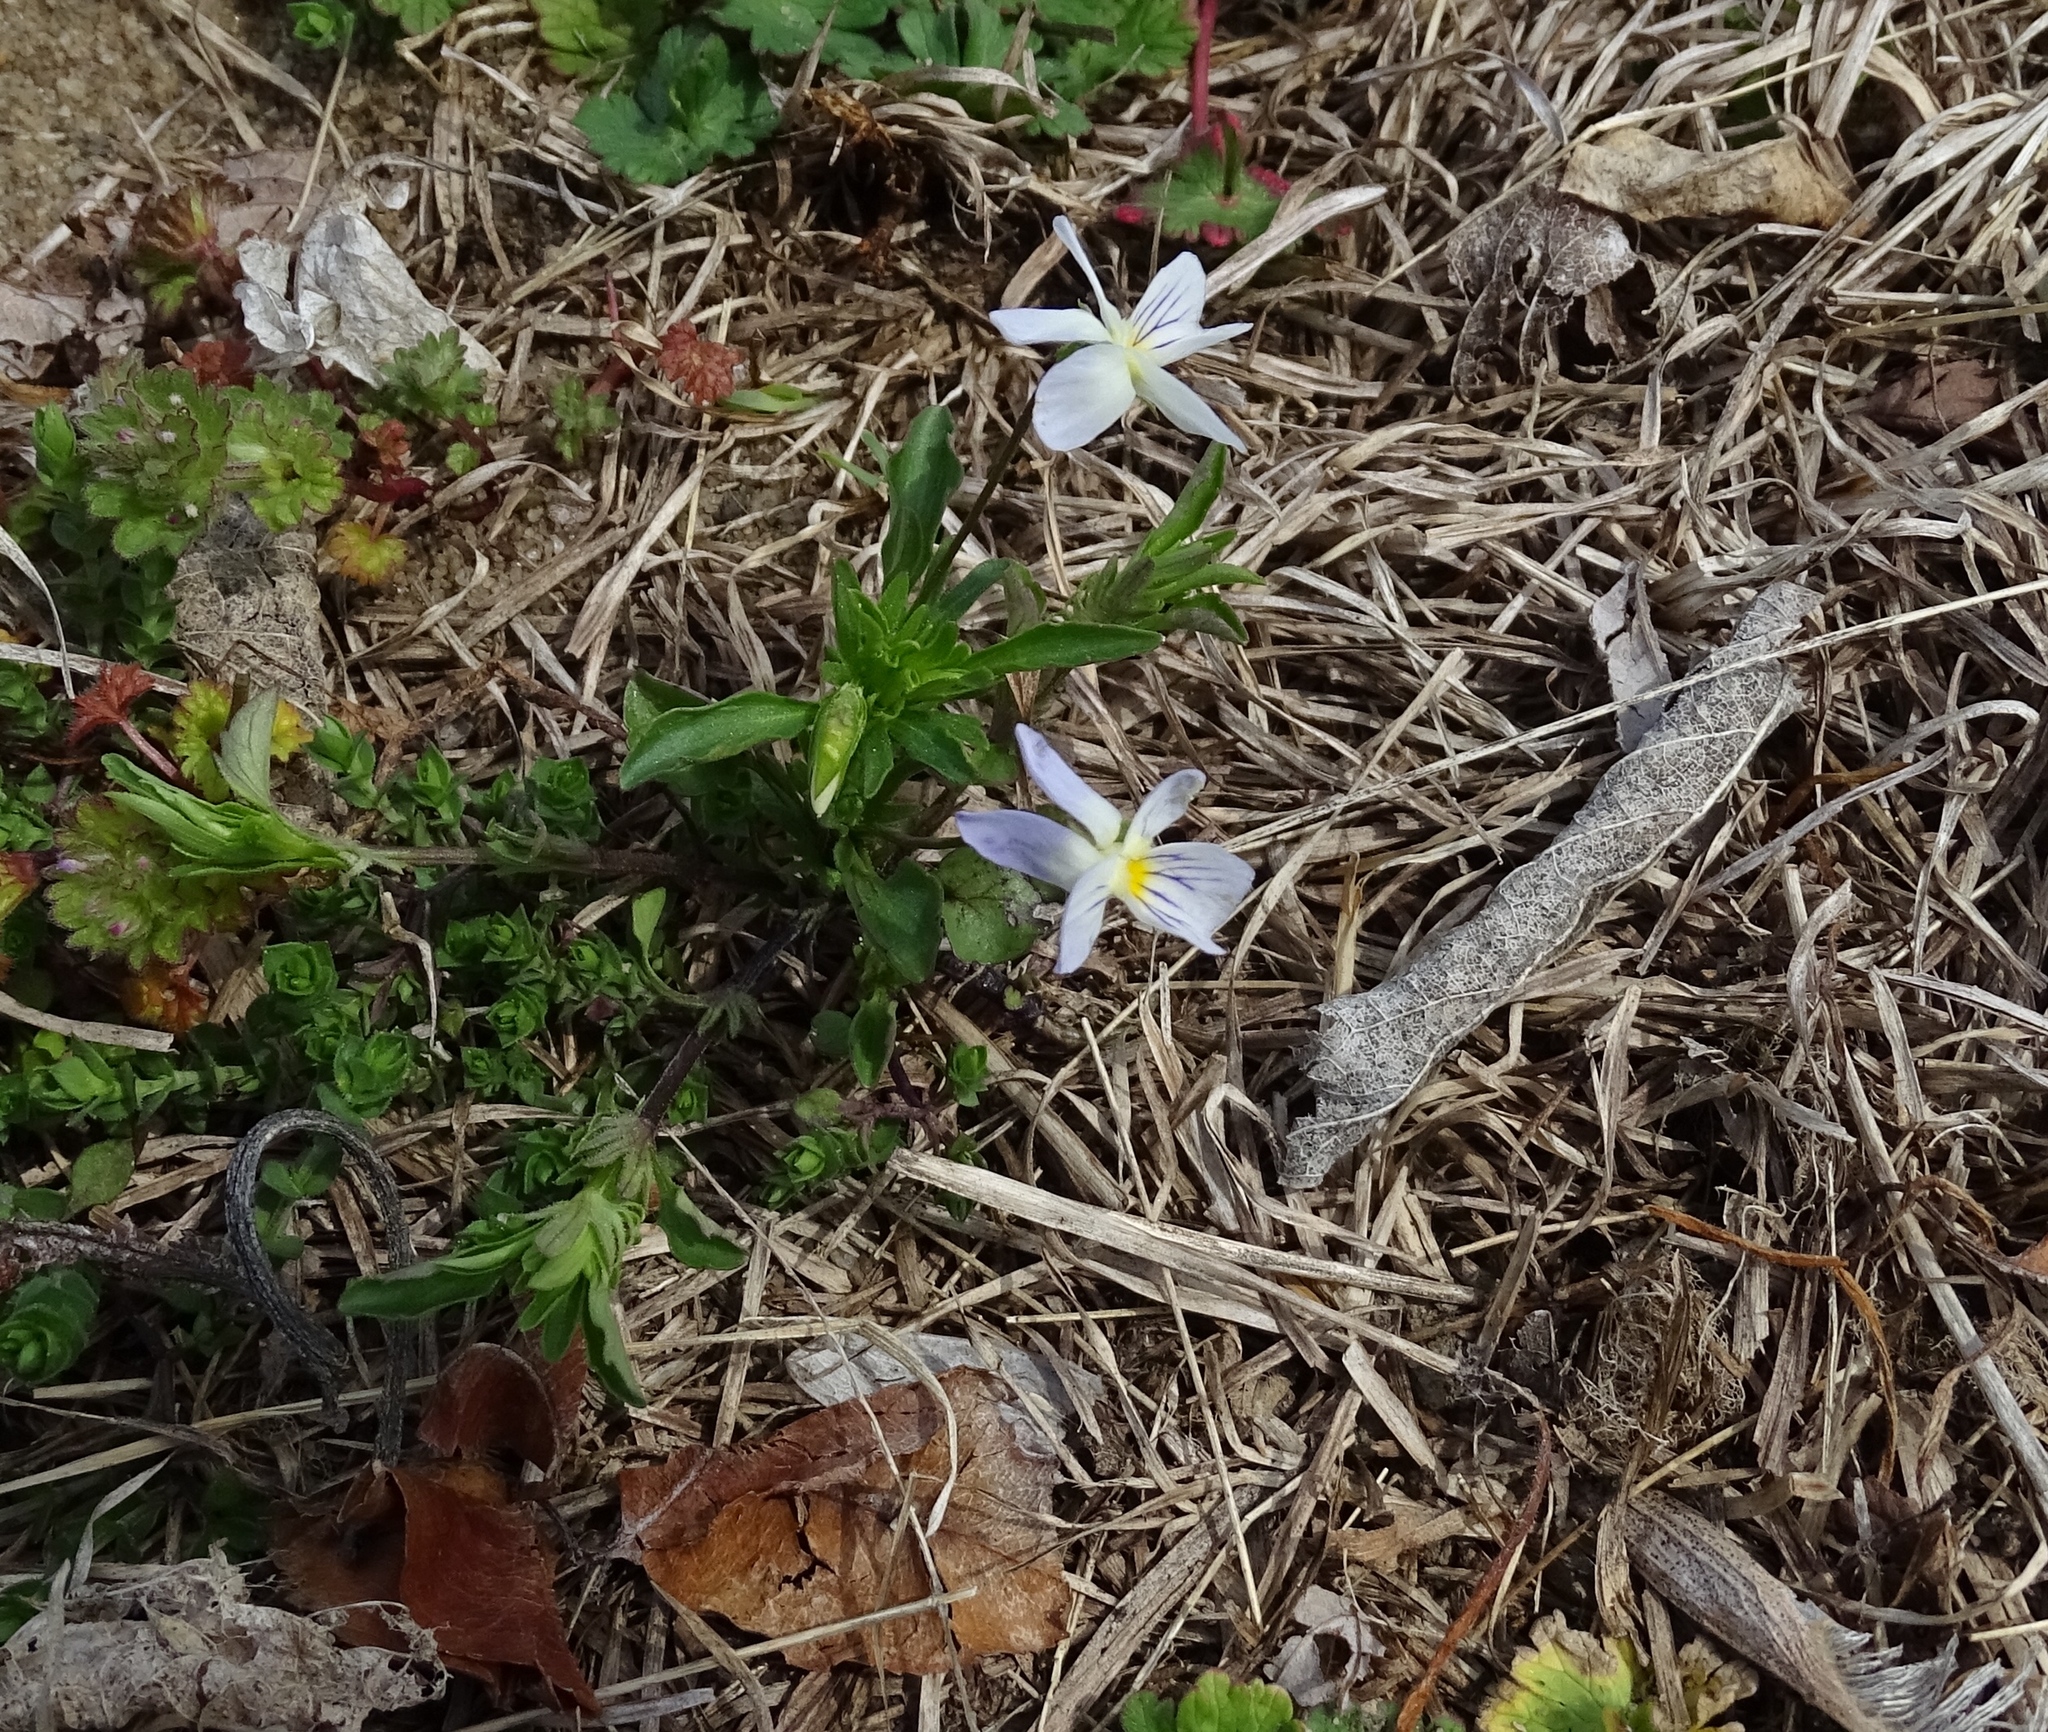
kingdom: Plantae
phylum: Tracheophyta
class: Magnoliopsida
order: Malpighiales
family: Violaceae
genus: Viola
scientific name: Viola rafinesquei
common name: American field pansy
